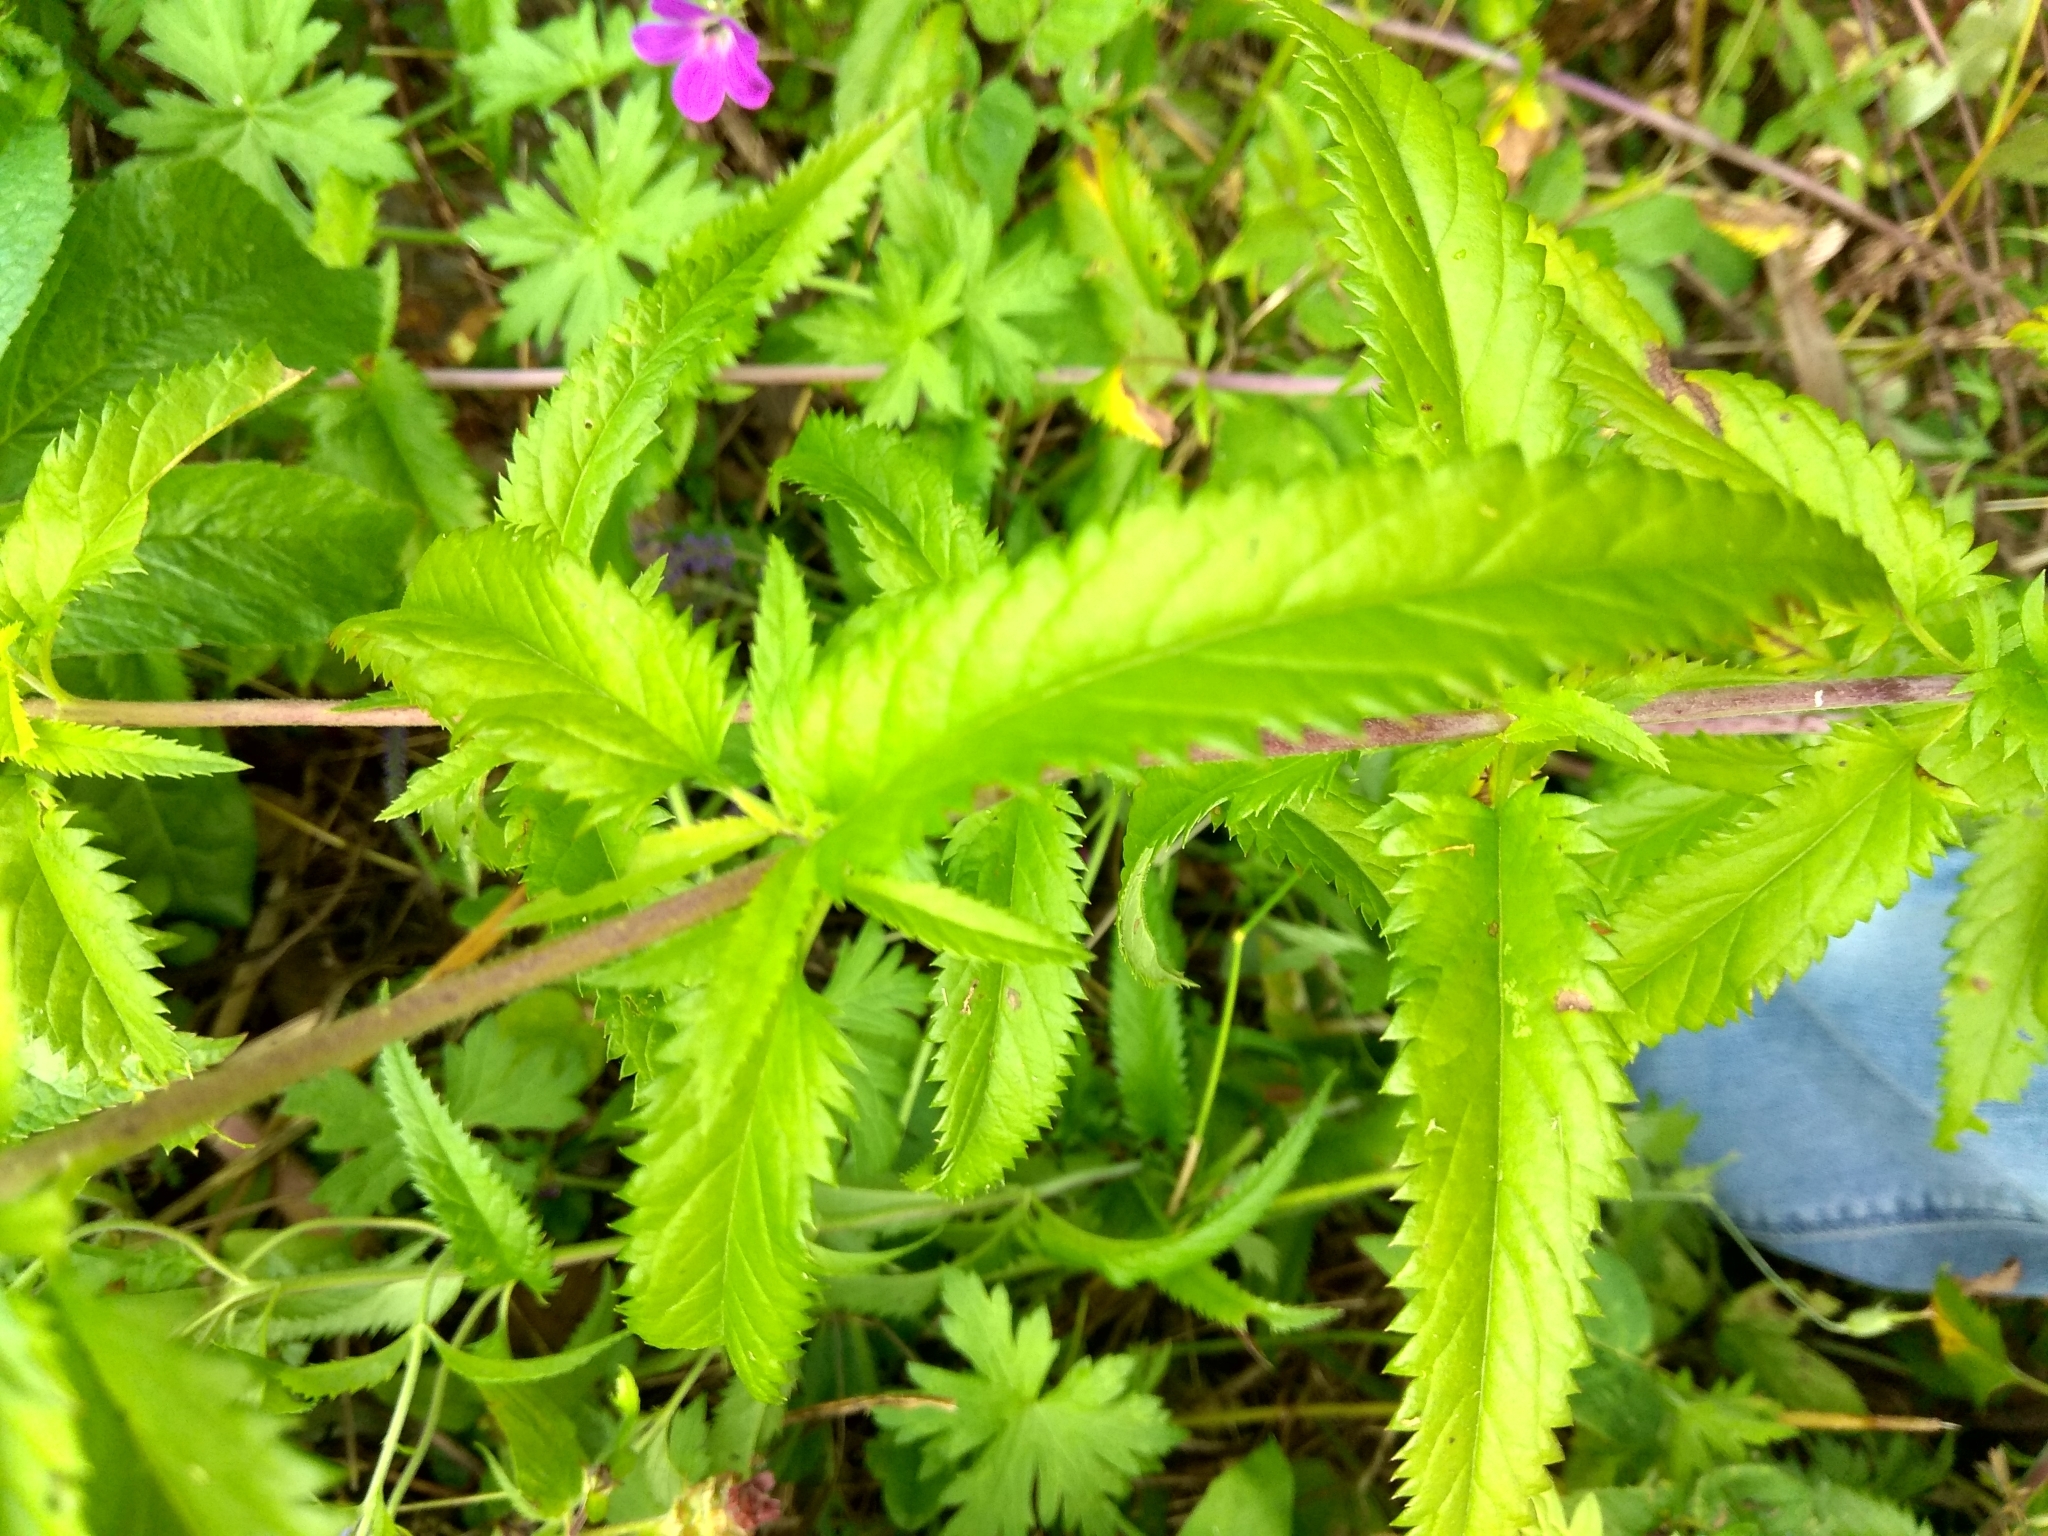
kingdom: Plantae
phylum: Tracheophyta
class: Magnoliopsida
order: Lamiales
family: Plantaginaceae
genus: Veronica
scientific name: Veronica longifolia
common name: Garden speedwell
